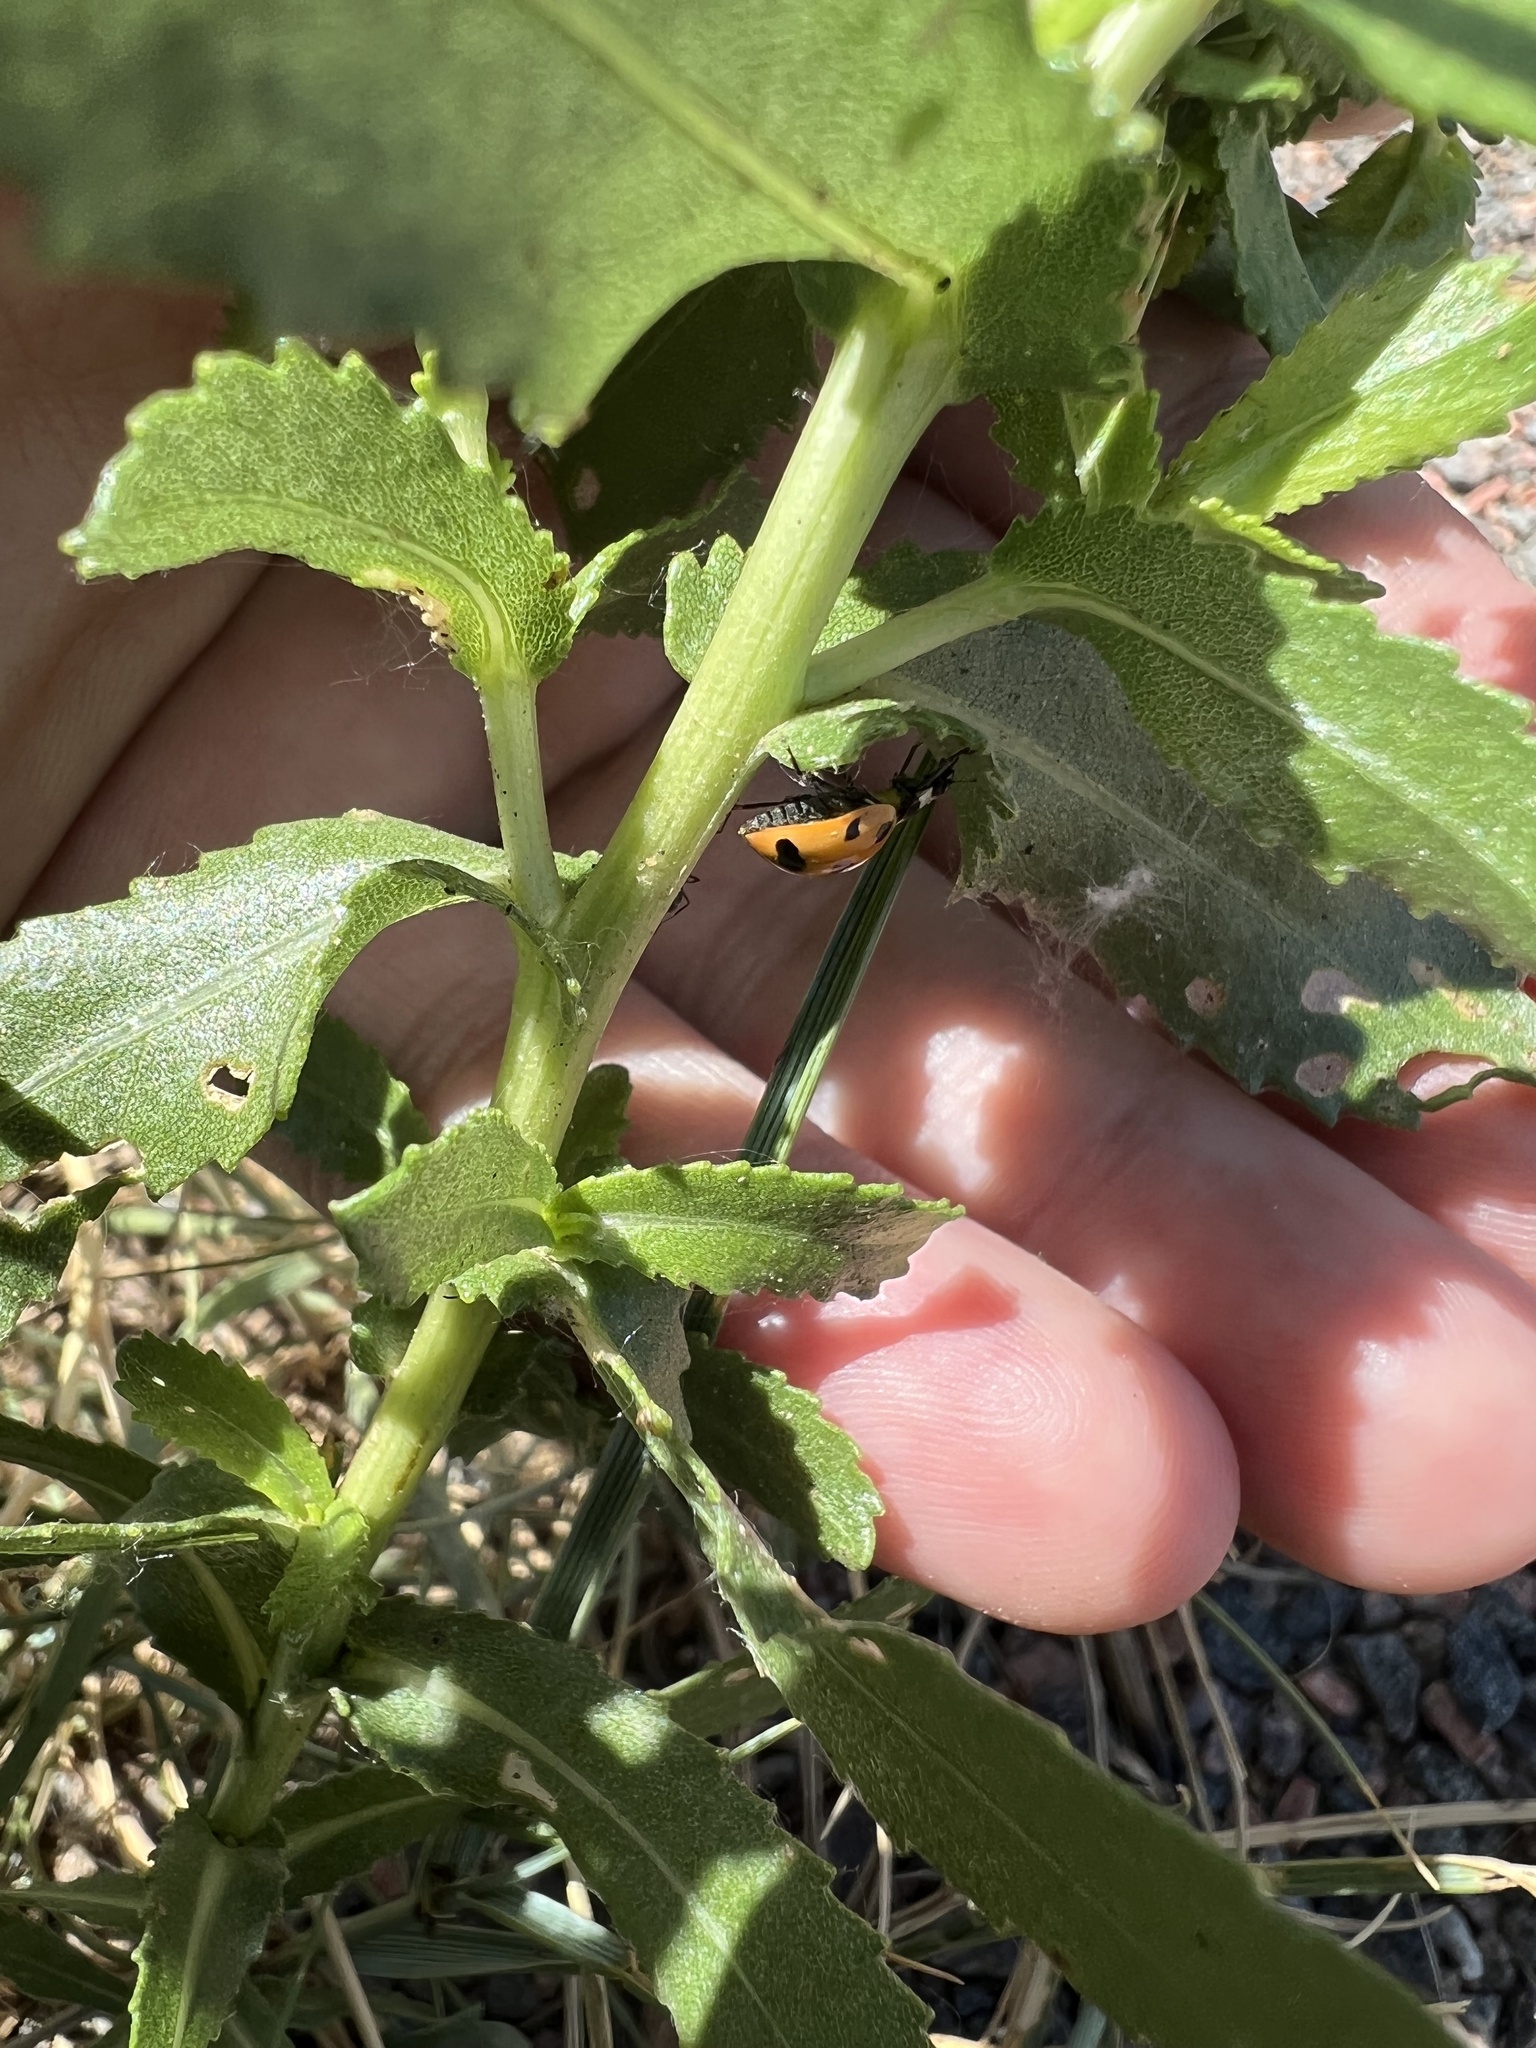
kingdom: Animalia
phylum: Arthropoda
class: Insecta
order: Coleoptera
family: Coccinellidae
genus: Coccinella
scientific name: Coccinella novemnotata
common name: Nine-spotted lady beetle
